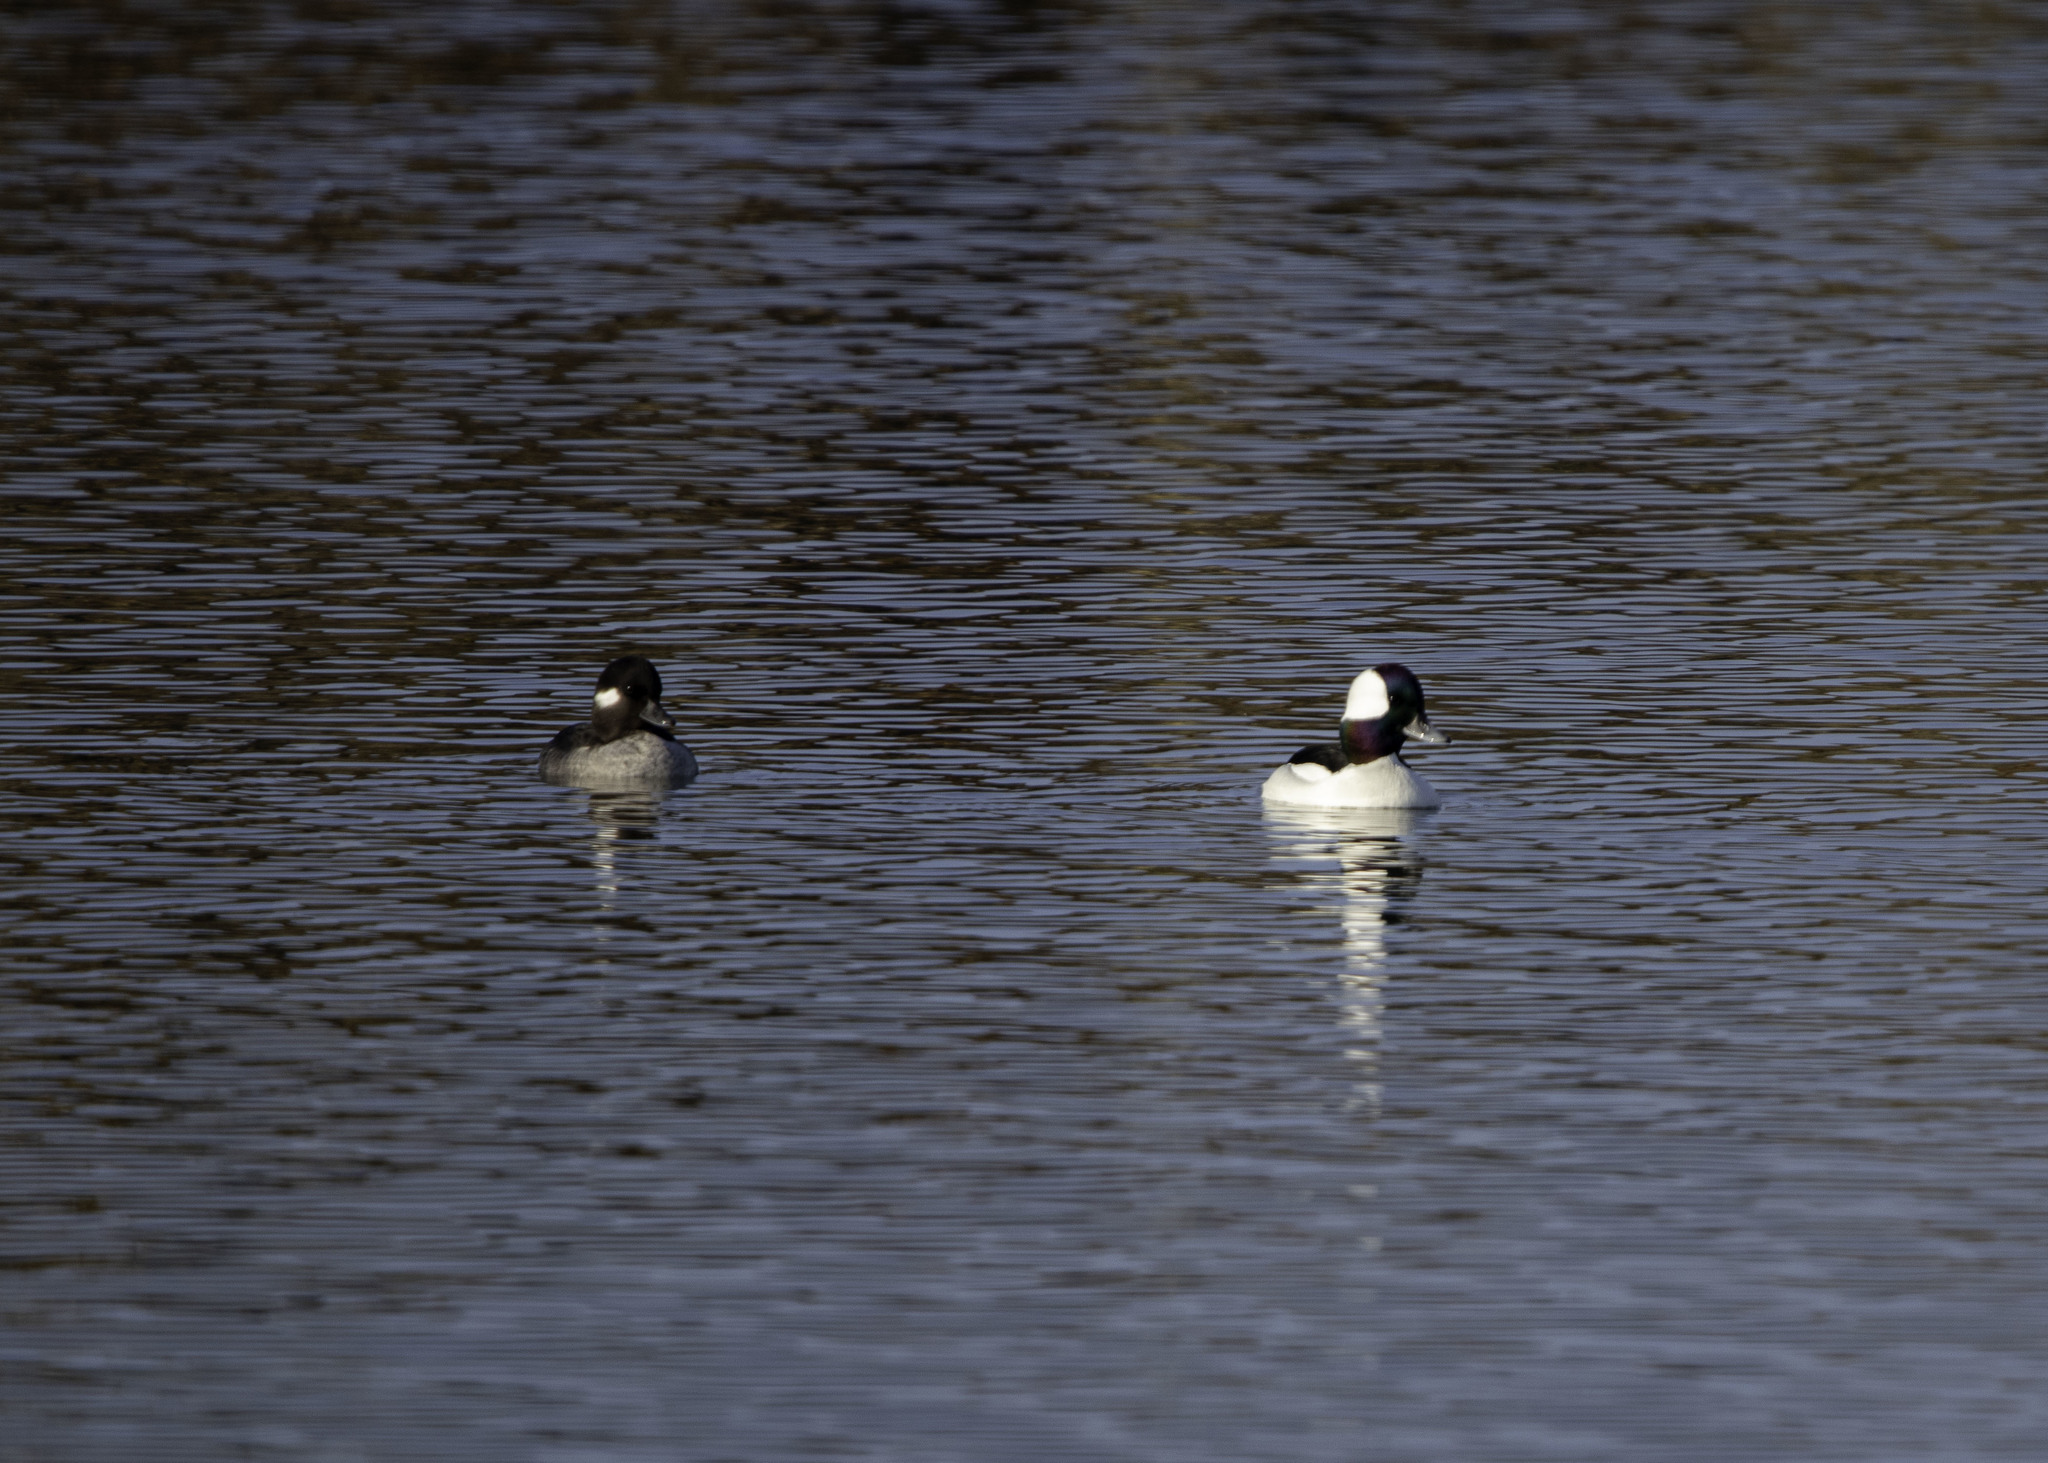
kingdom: Animalia
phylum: Chordata
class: Aves
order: Anseriformes
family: Anatidae
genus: Bucephala
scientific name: Bucephala albeola
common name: Bufflehead
